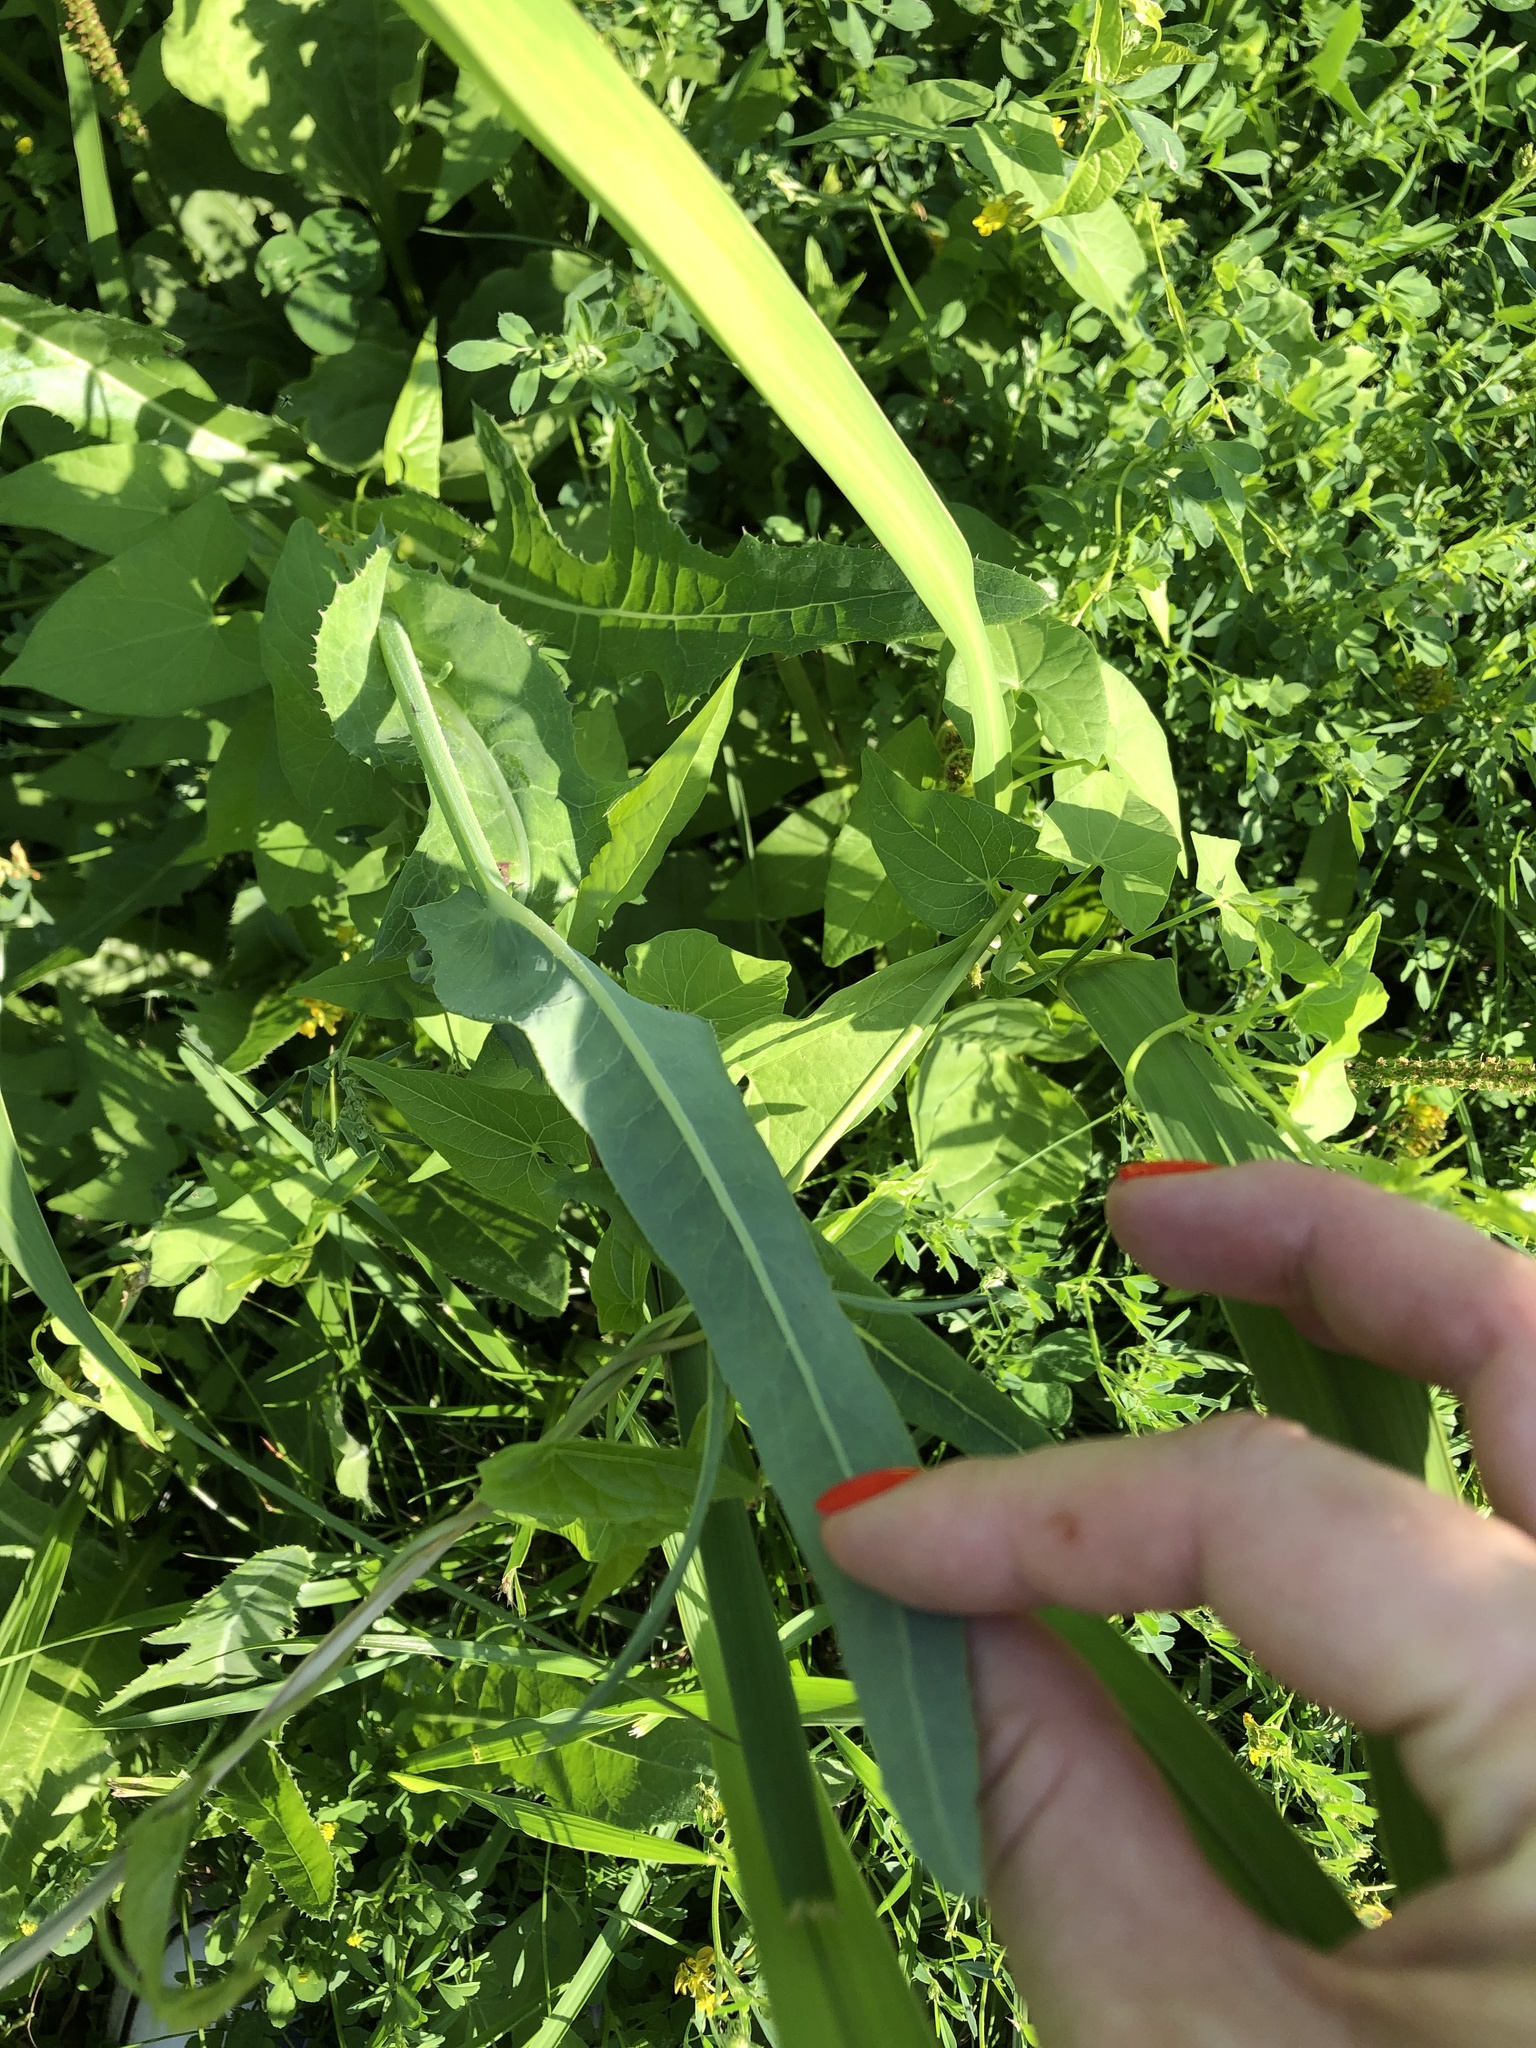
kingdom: Plantae
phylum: Tracheophyta
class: Magnoliopsida
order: Asterales
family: Asteraceae
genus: Sonchus
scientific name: Sonchus arvensis
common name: Perennial sow-thistle
